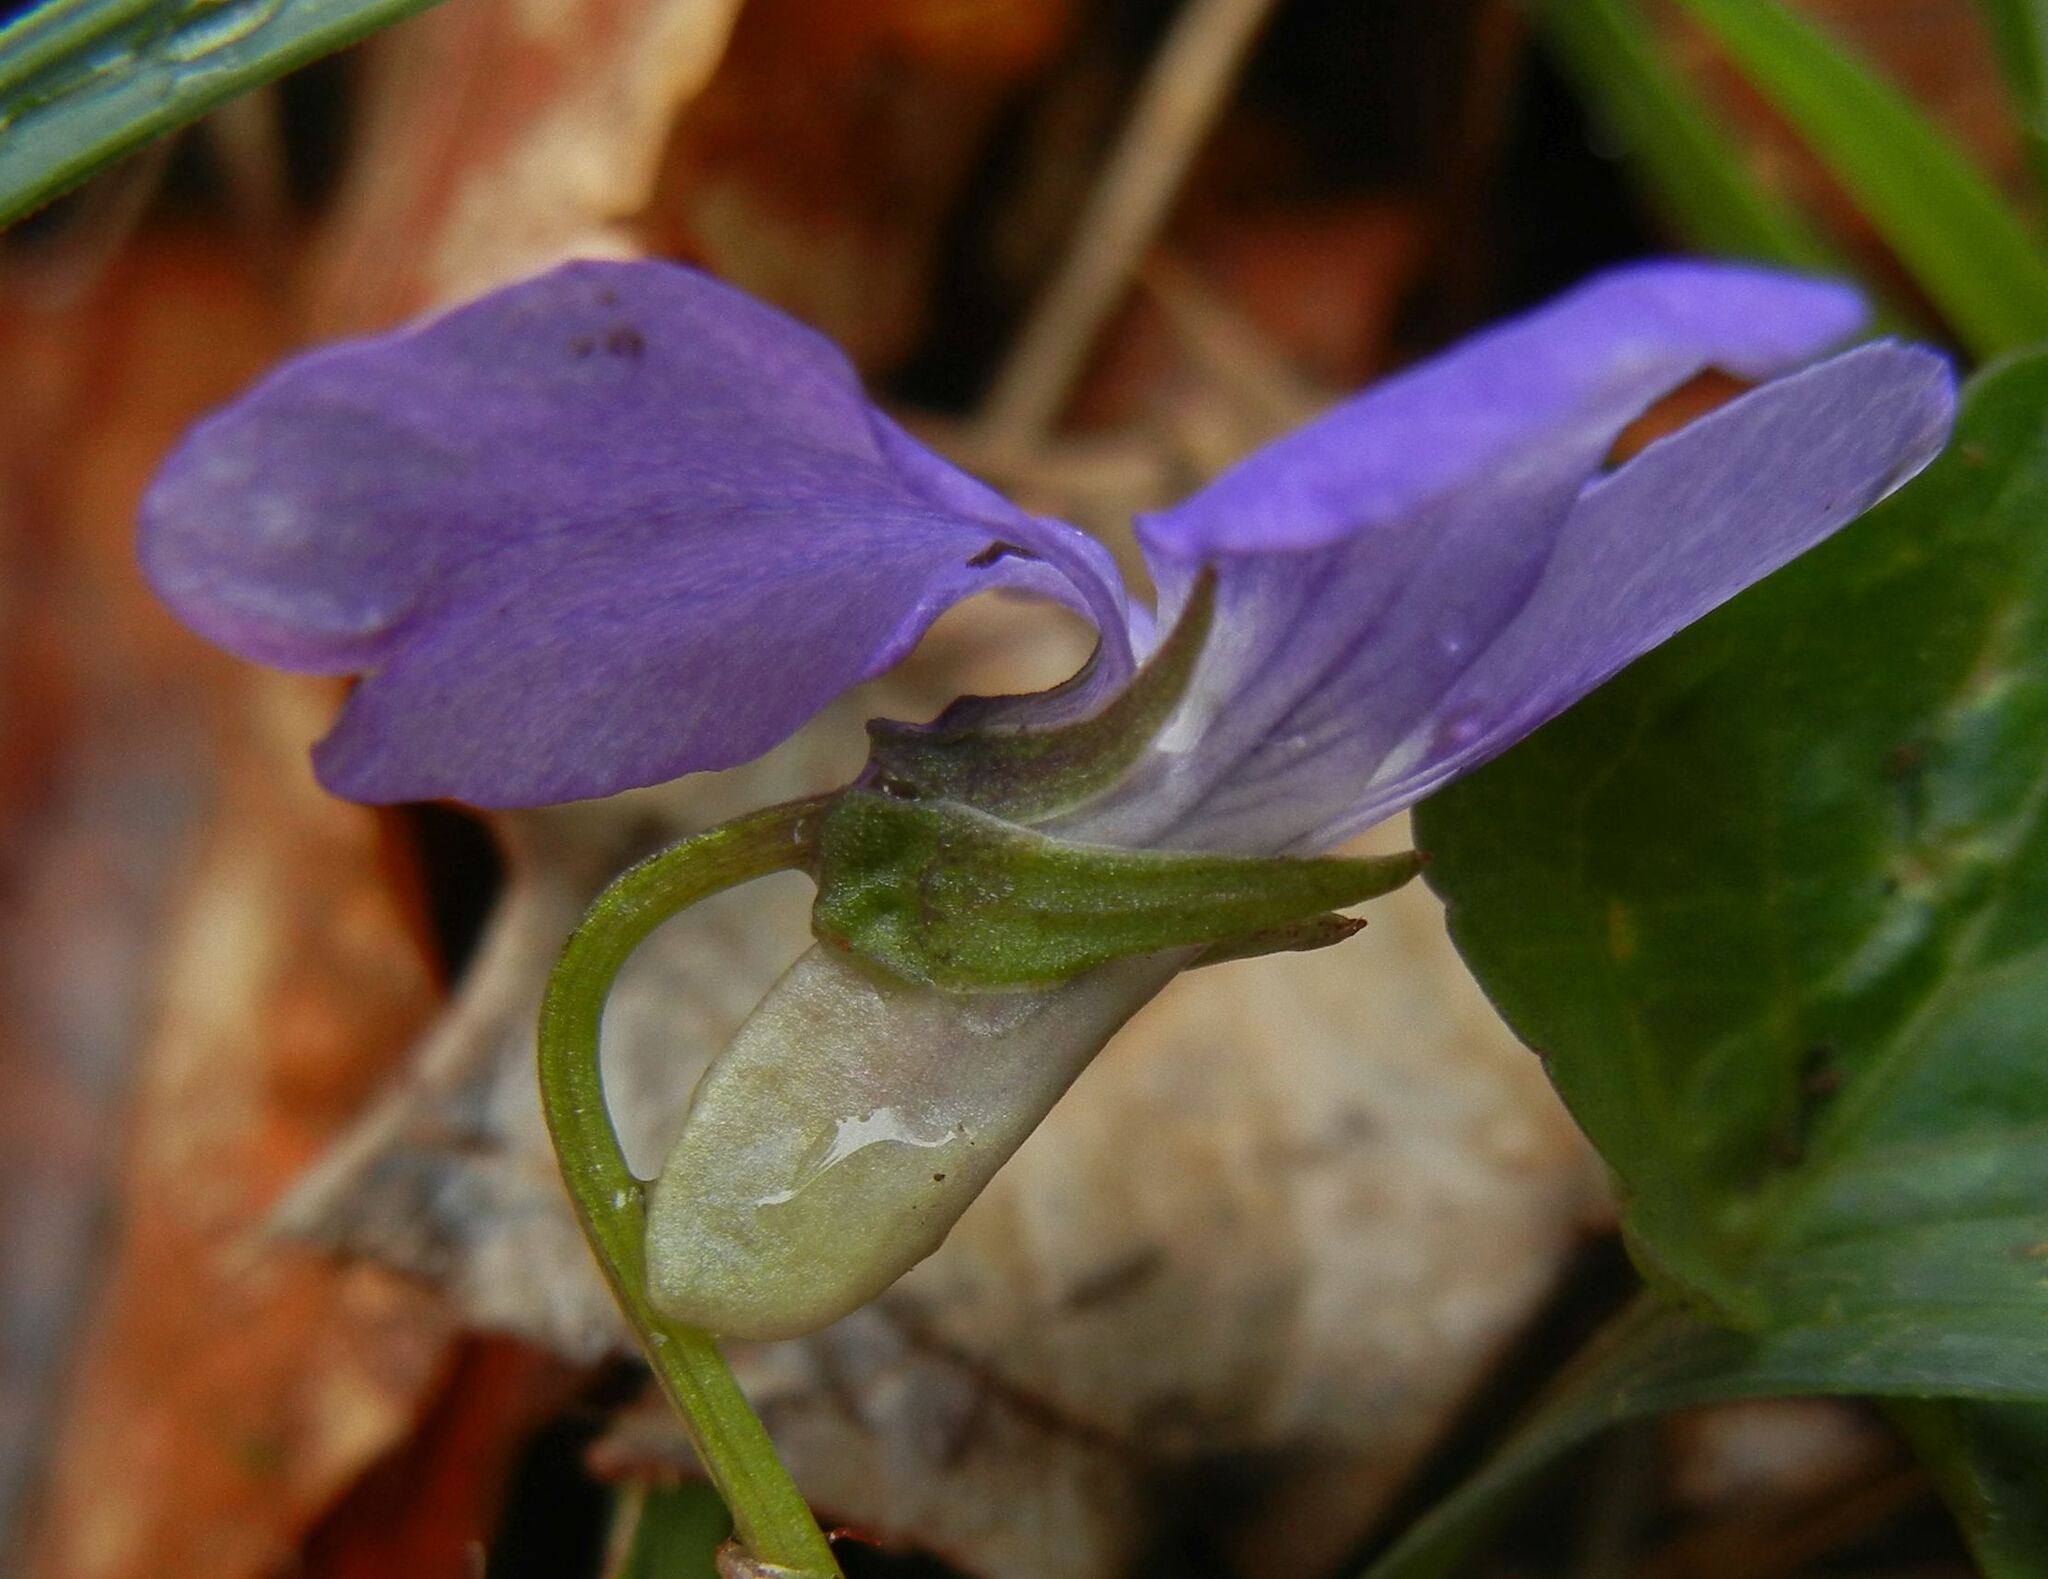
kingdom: Plantae
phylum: Tracheophyta
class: Magnoliopsida
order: Malpighiales
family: Violaceae
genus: Viola
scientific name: Viola riviniana
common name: Common dog-violet
